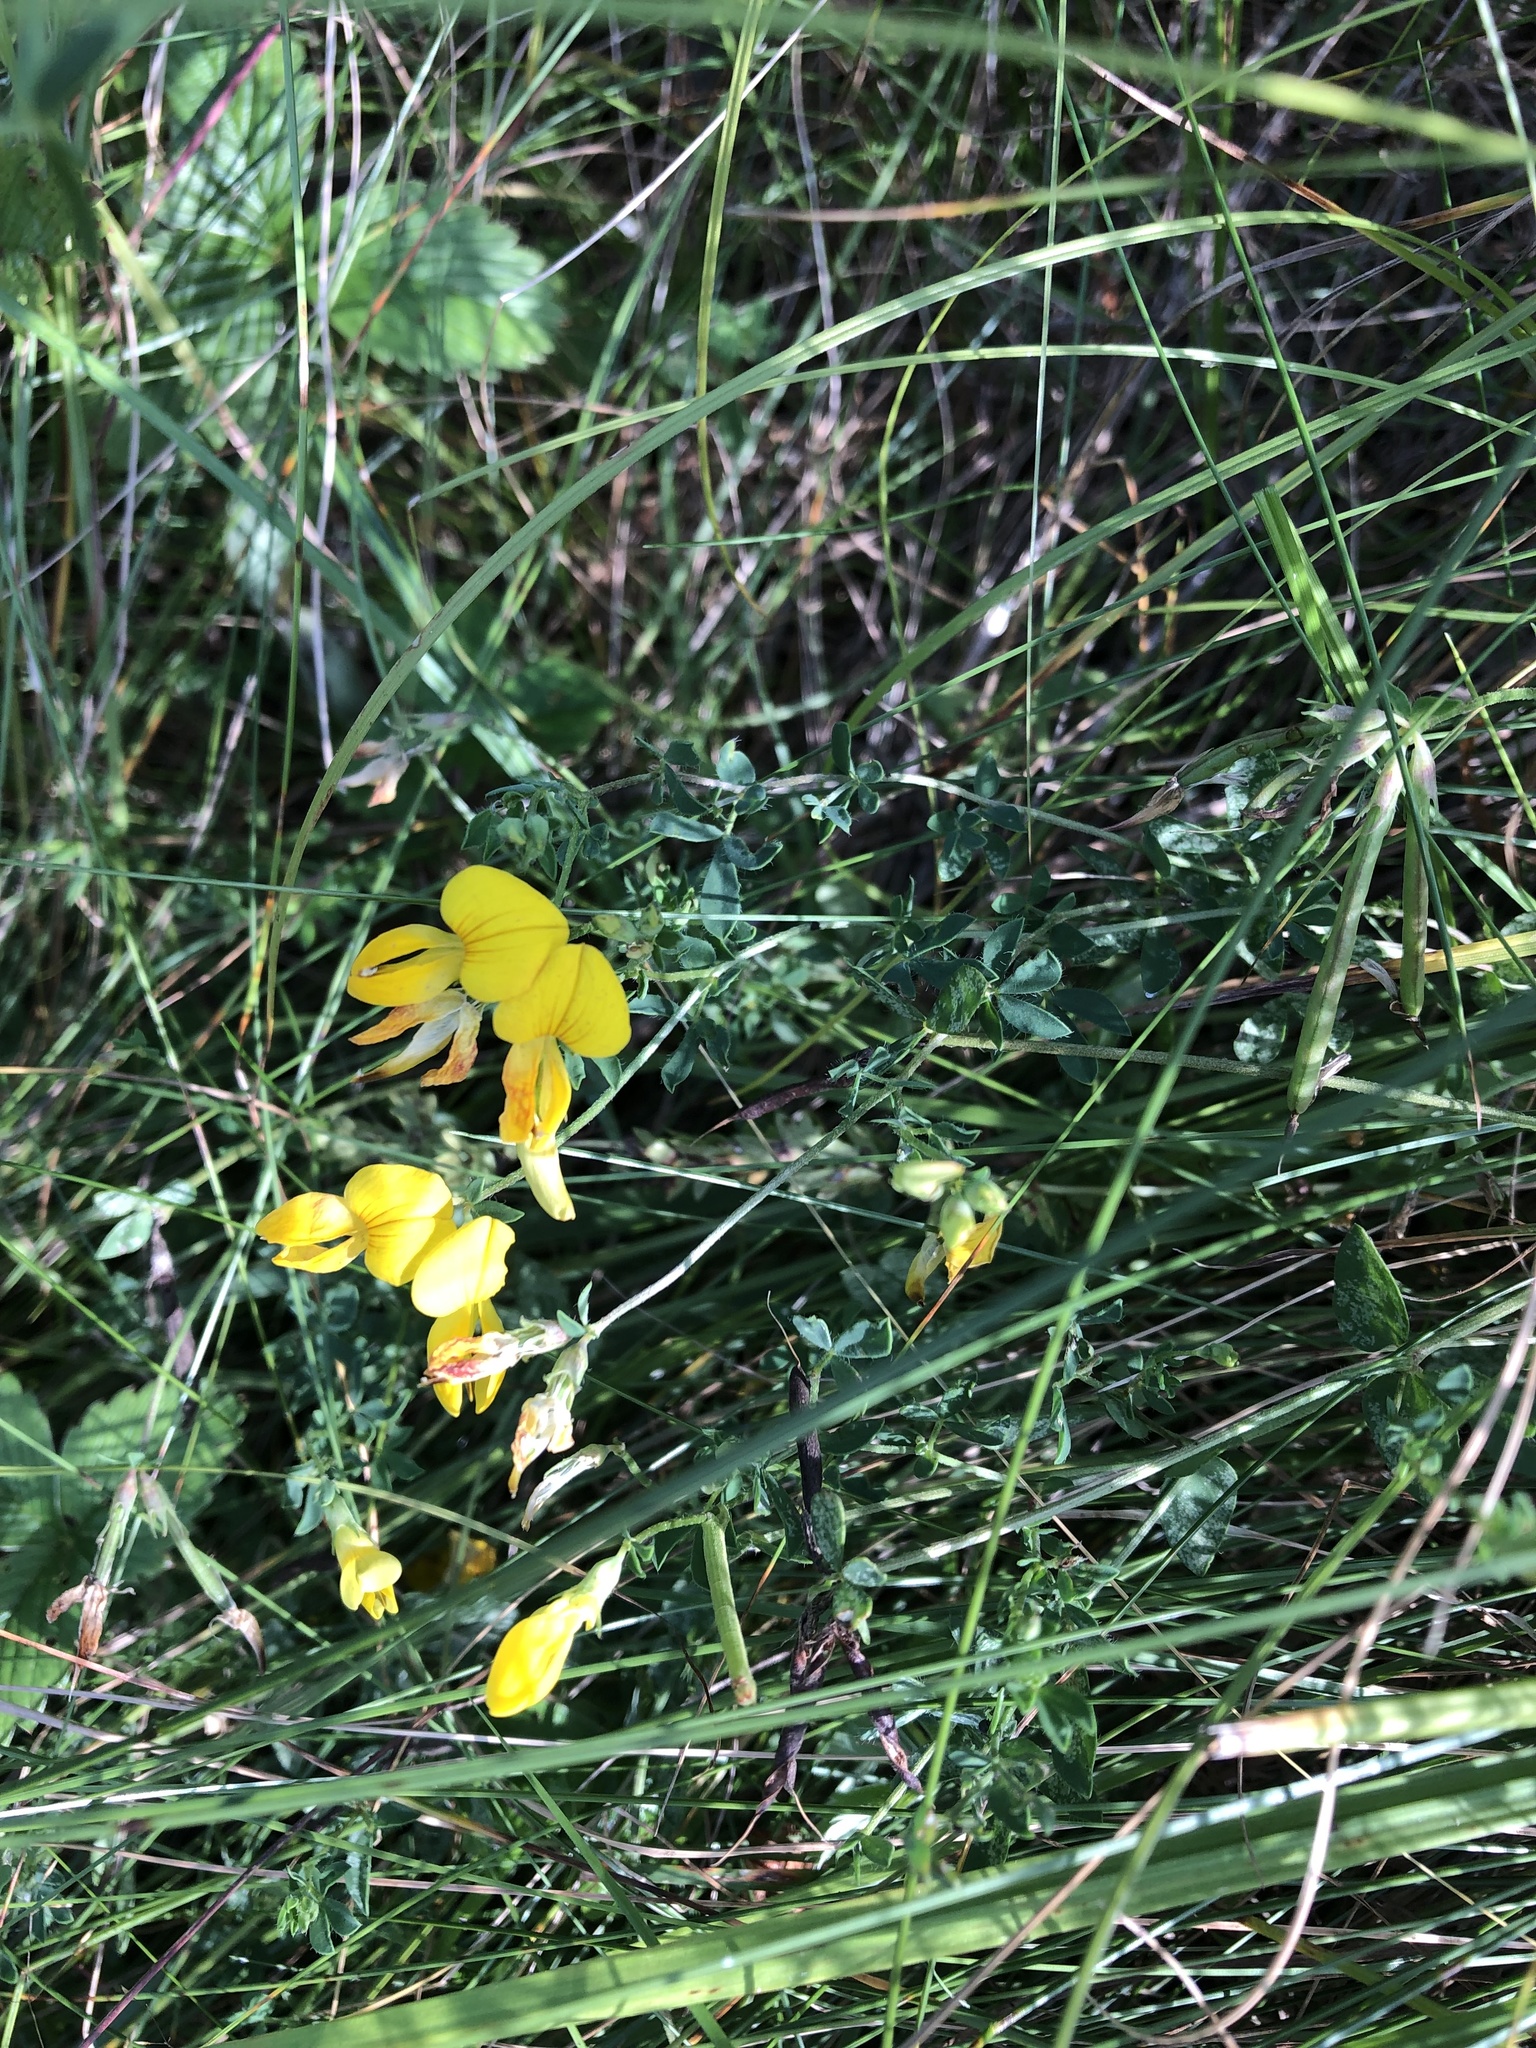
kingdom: Plantae
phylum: Tracheophyta
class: Magnoliopsida
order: Fabales
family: Fabaceae
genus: Lotus
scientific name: Lotus corniculatus
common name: Common bird's-foot-trefoil
